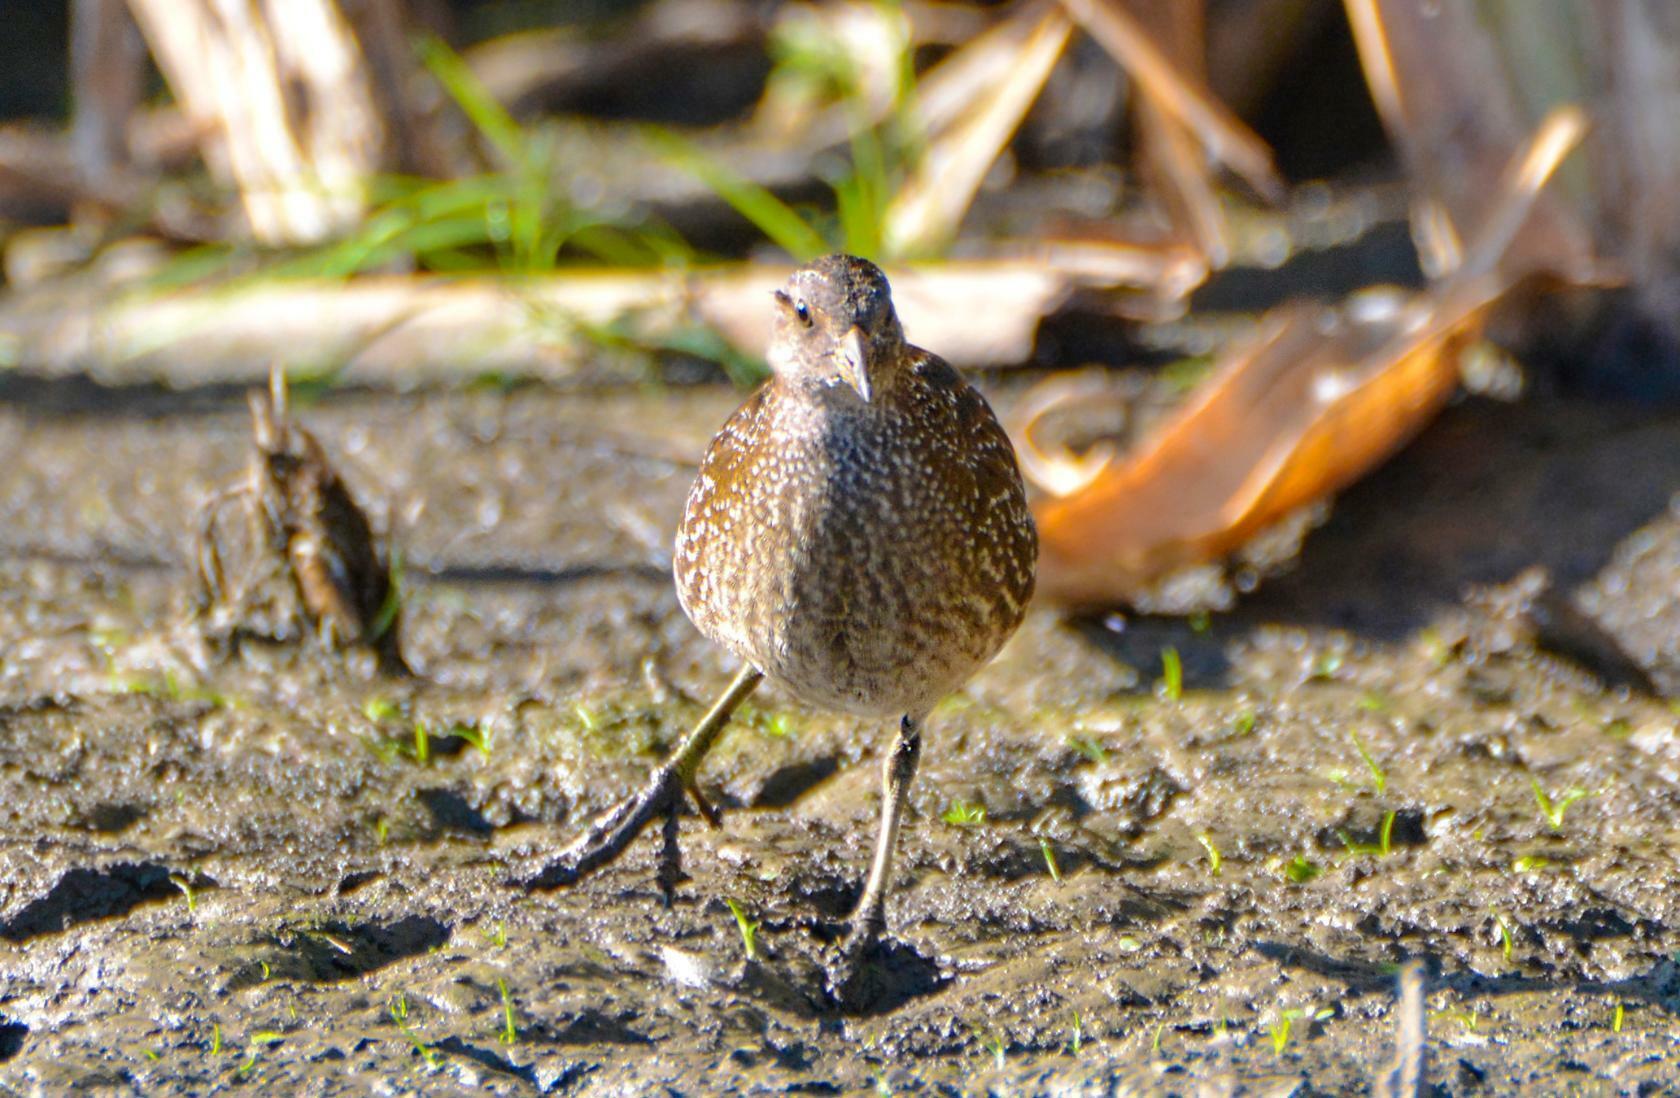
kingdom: Animalia
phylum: Chordata
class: Aves
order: Gruiformes
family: Rallidae
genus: Porzana
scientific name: Porzana porzana
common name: Spotted crake
